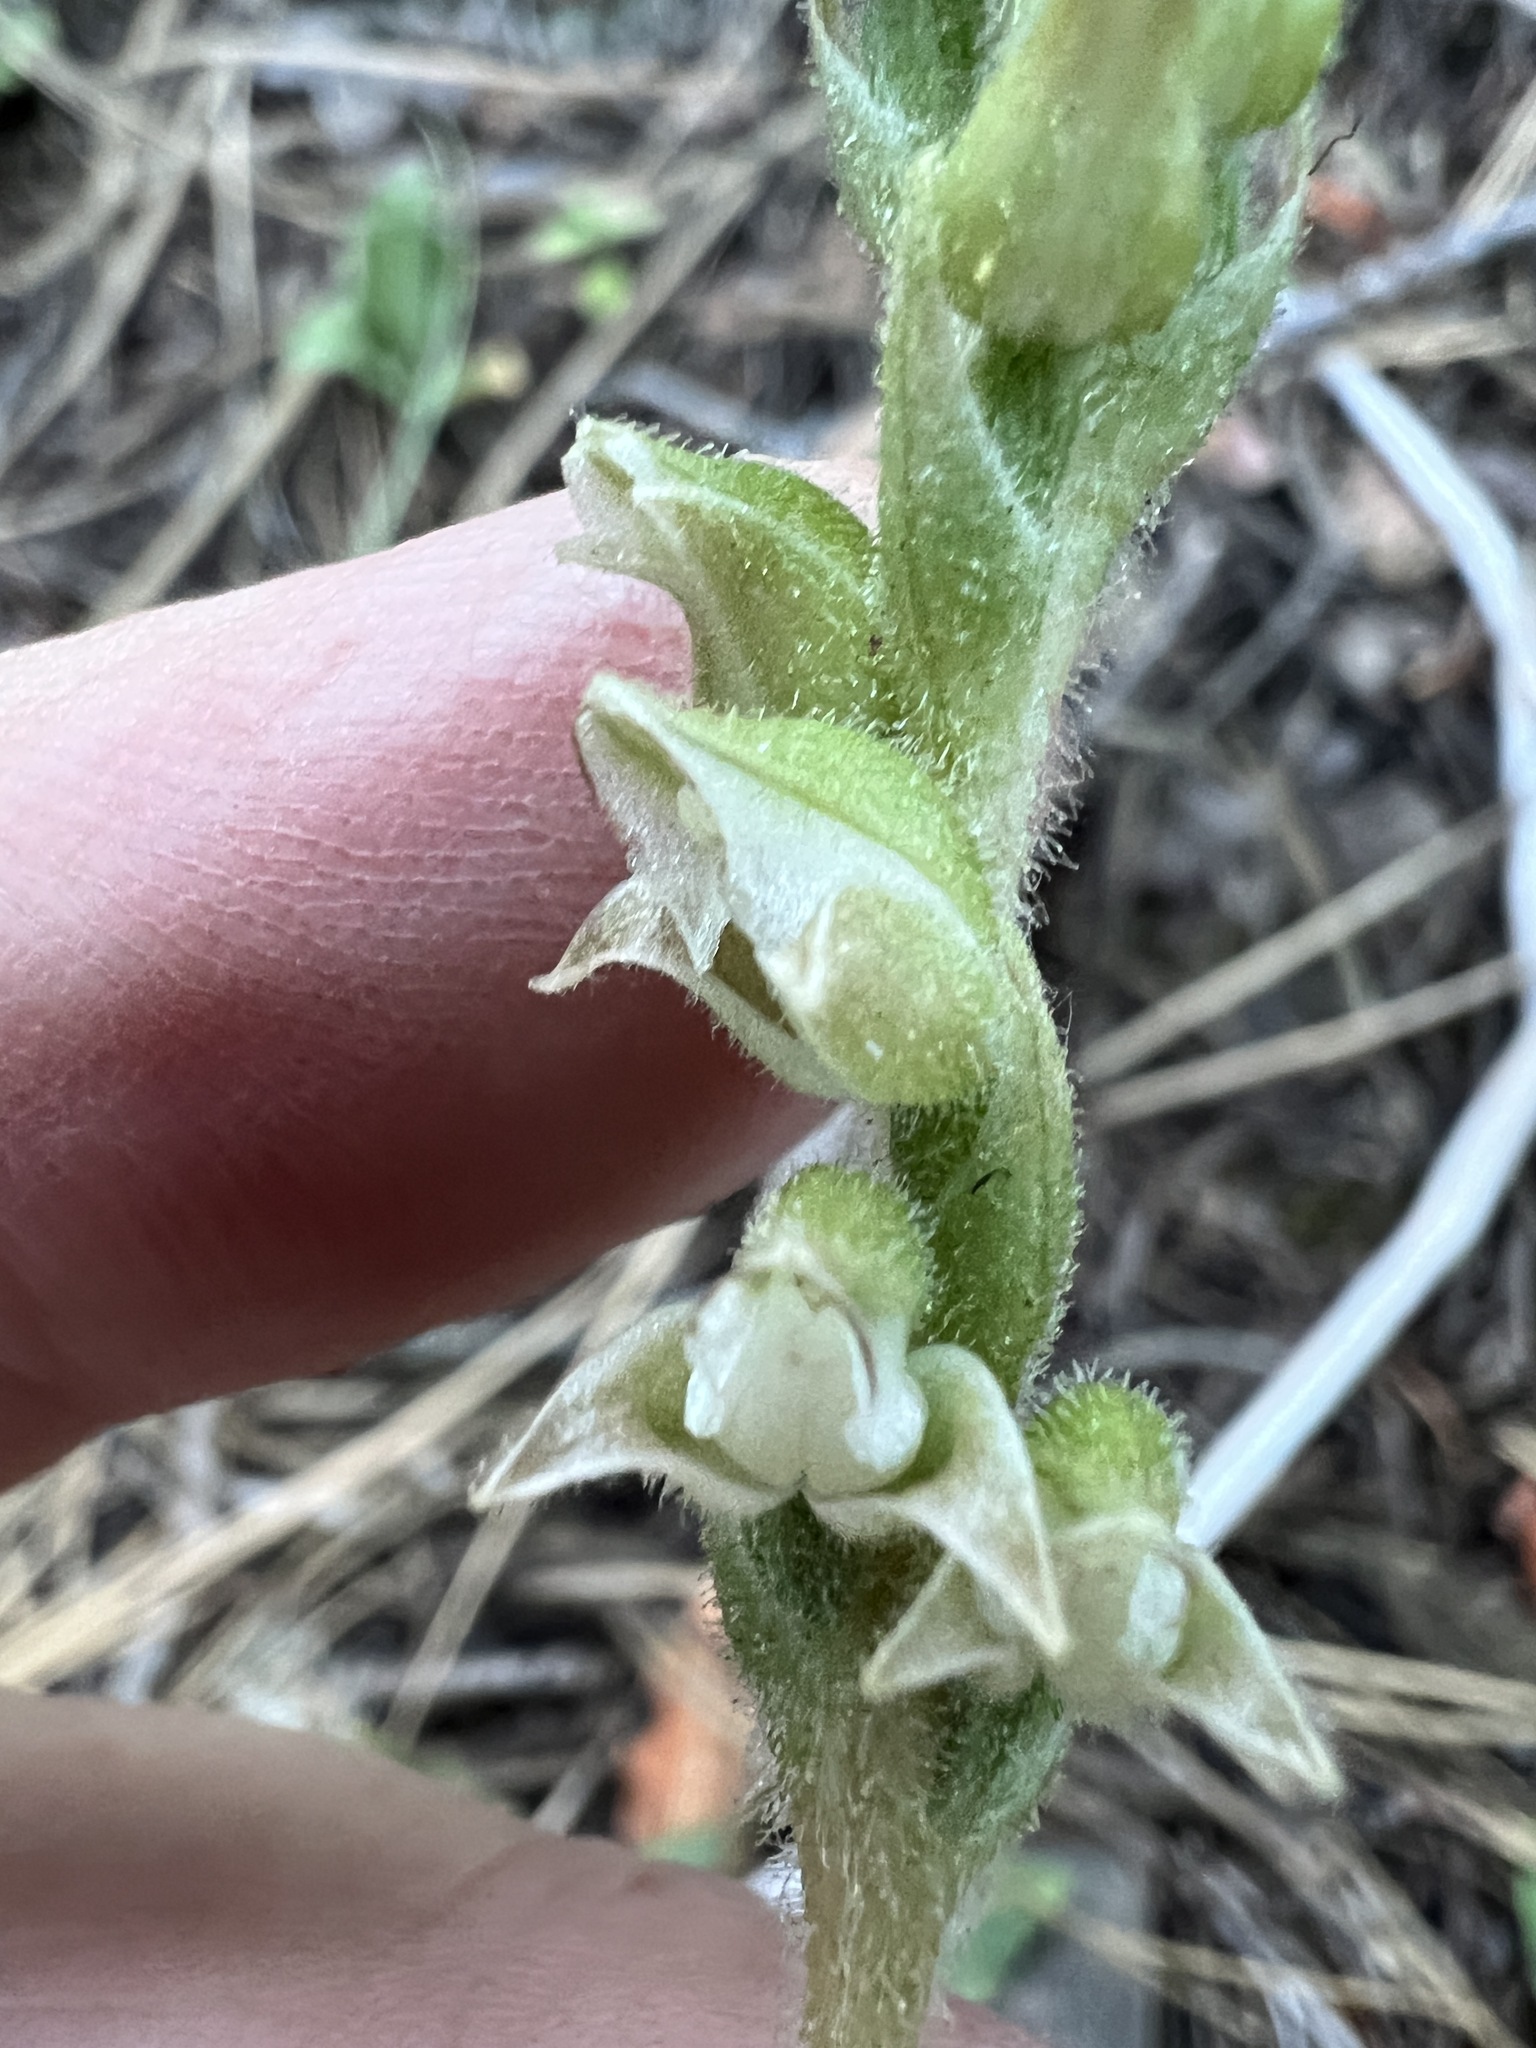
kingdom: Plantae
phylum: Tracheophyta
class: Liliopsida
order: Asparagales
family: Orchidaceae
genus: Goodyera
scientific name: Goodyera oblongifolia
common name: Giant rattlesnake-plantain
